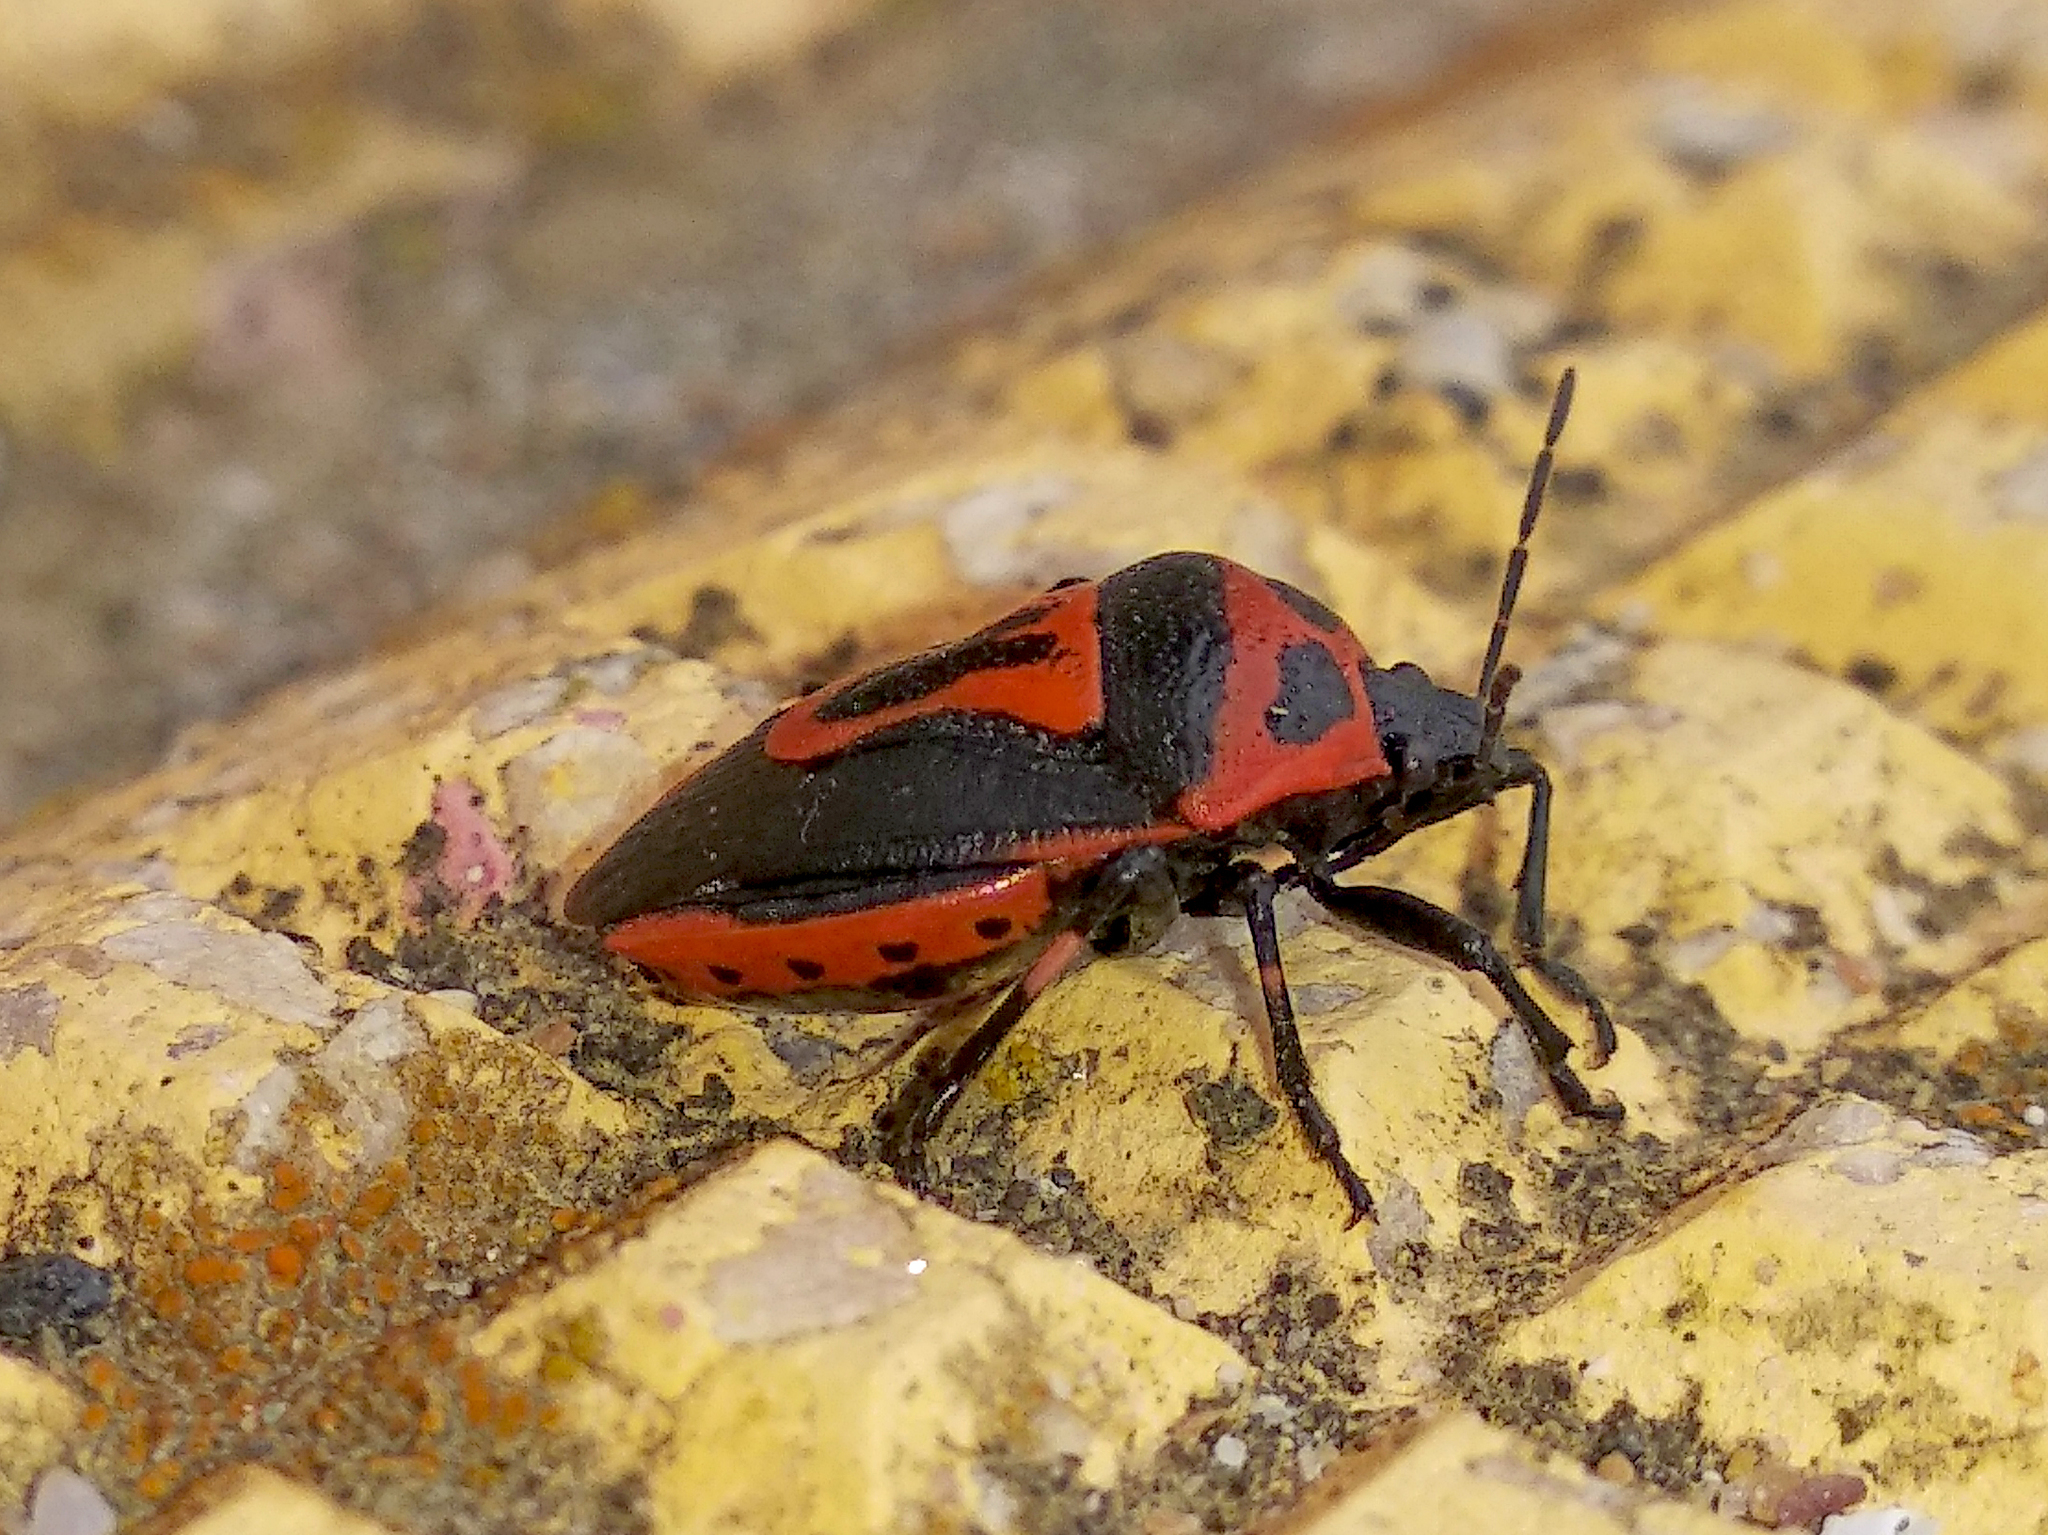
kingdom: Animalia
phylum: Arthropoda
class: Insecta
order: Hemiptera
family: Pentatomidae
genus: Perillus
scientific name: Perillus bioculatus
